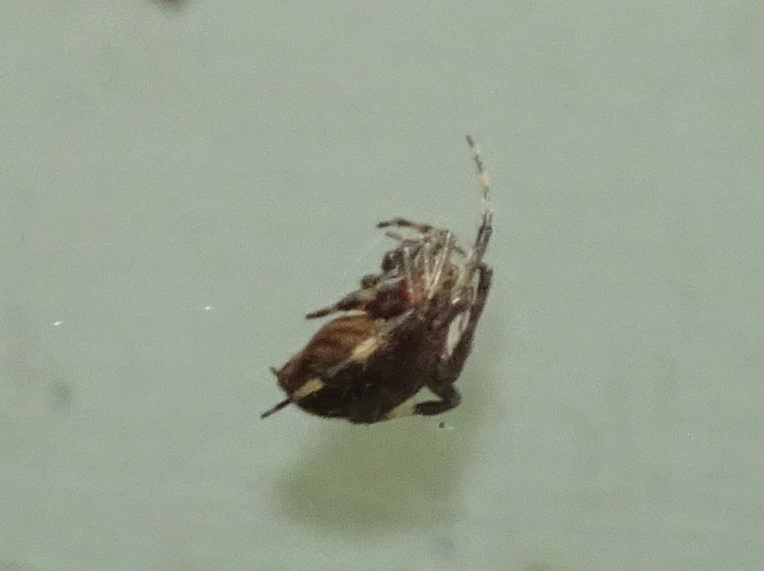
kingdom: Animalia
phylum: Arthropoda
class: Arachnida
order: Araneae
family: Araneidae
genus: Neoscona
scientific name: Neoscona crucifera
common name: Spotted orbweaver
